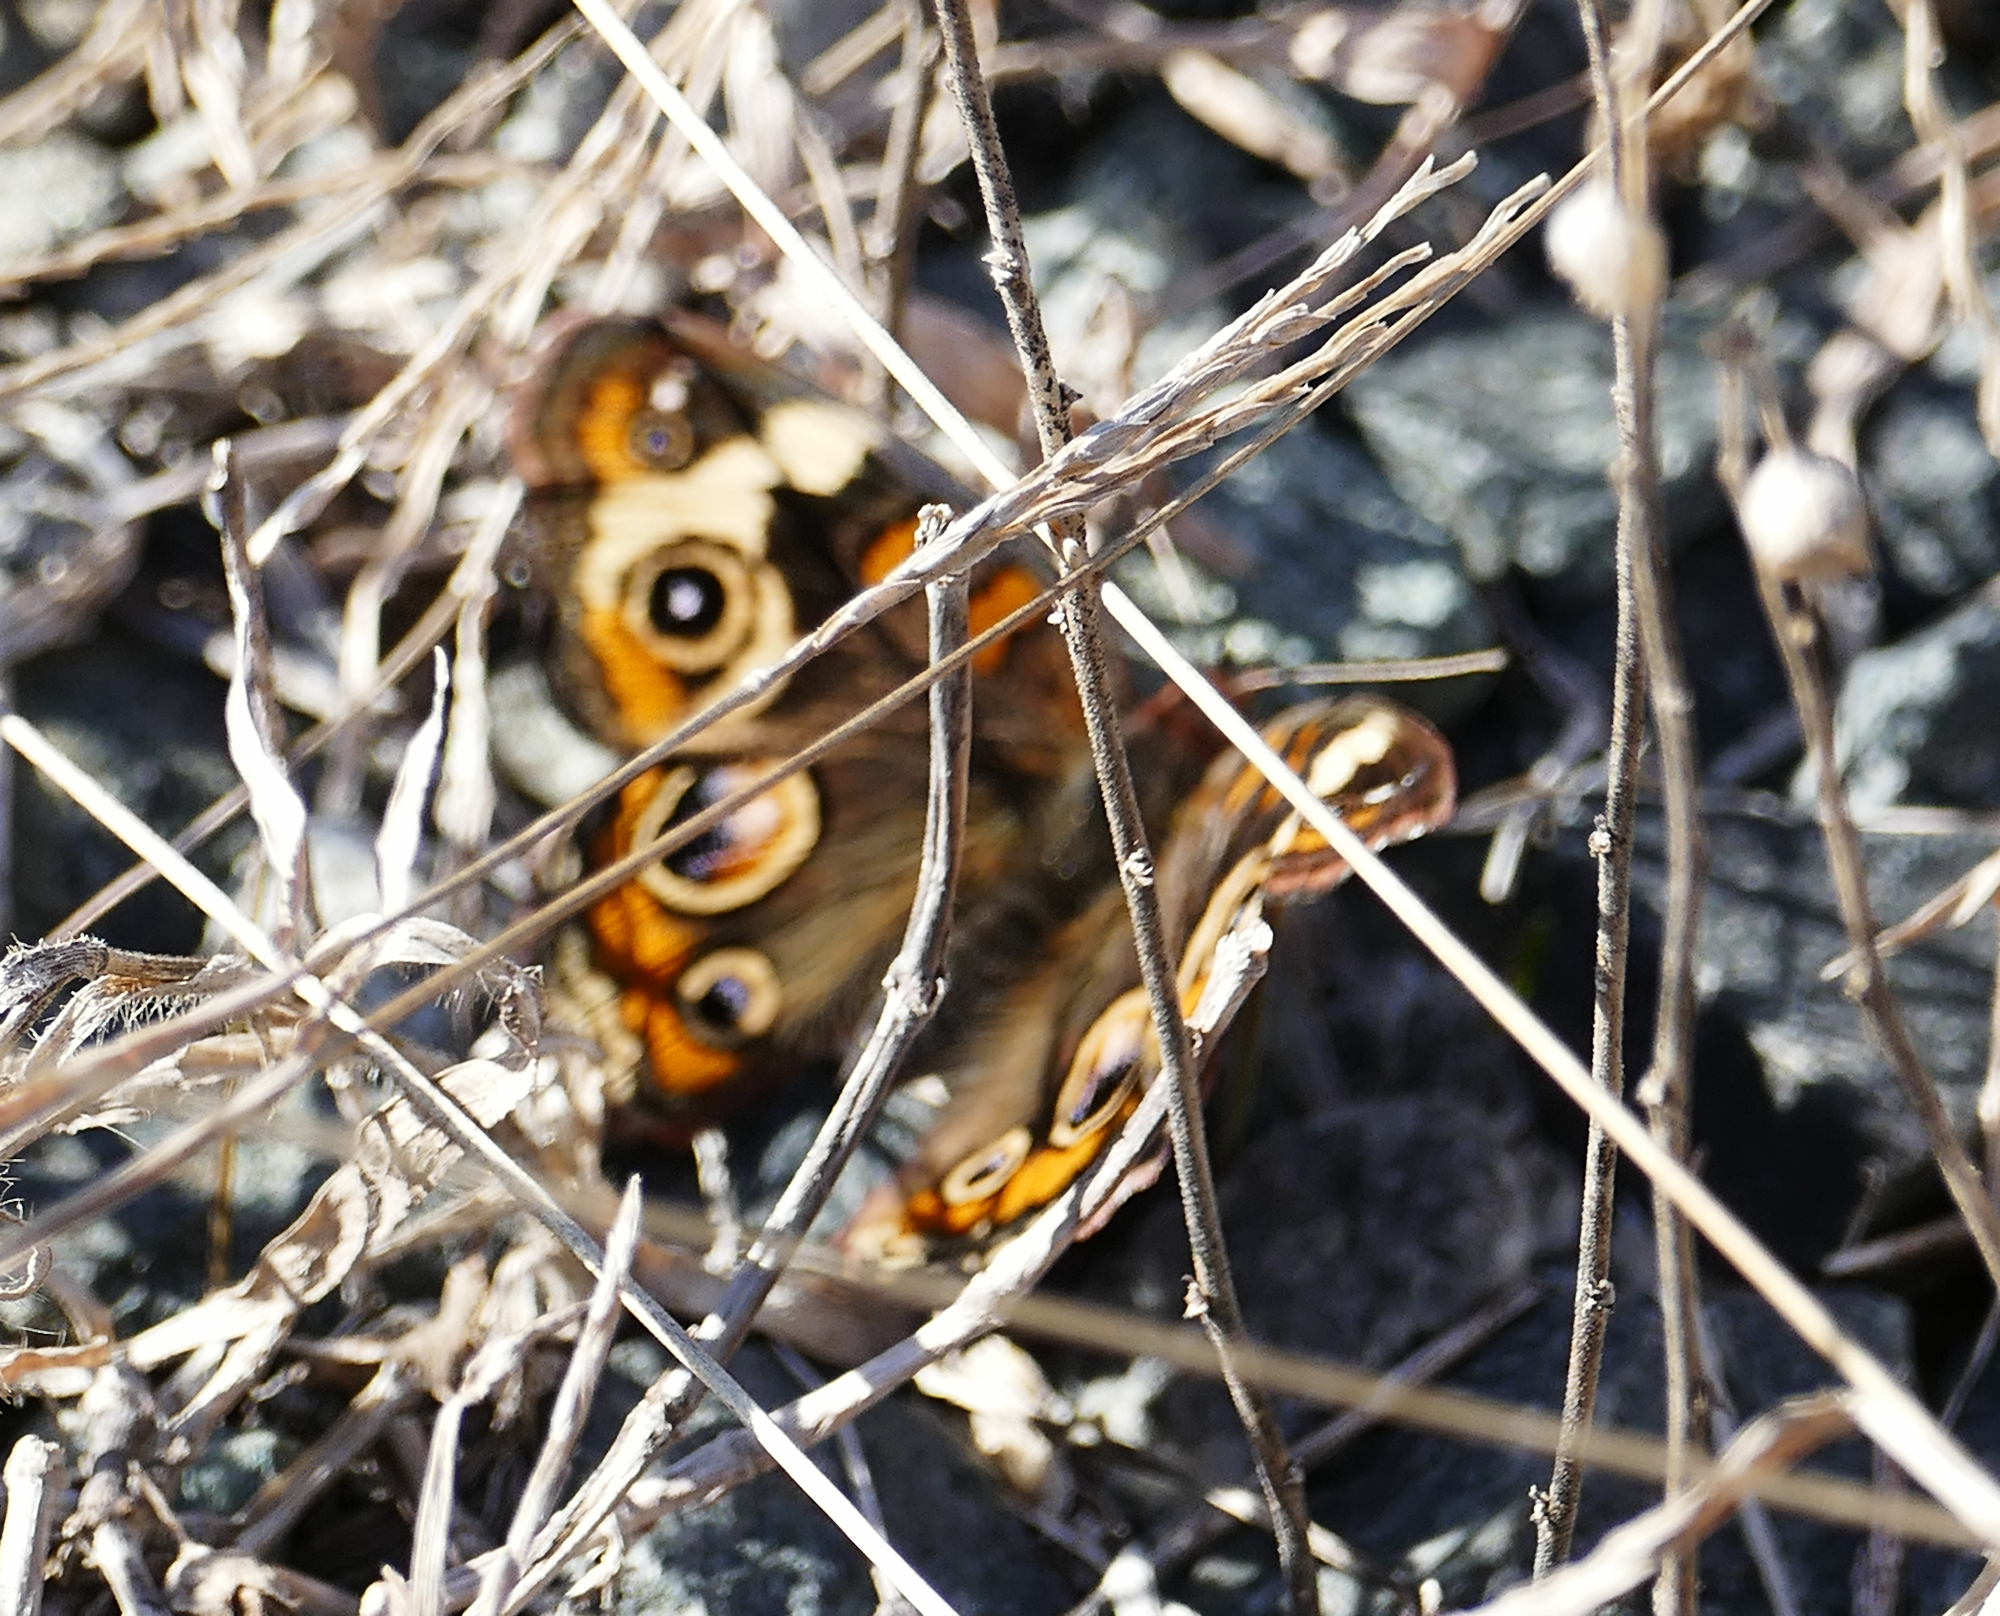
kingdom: Animalia
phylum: Arthropoda
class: Insecta
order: Lepidoptera
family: Nymphalidae
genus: Junonia
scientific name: Junonia coenia
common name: Common buckeye
